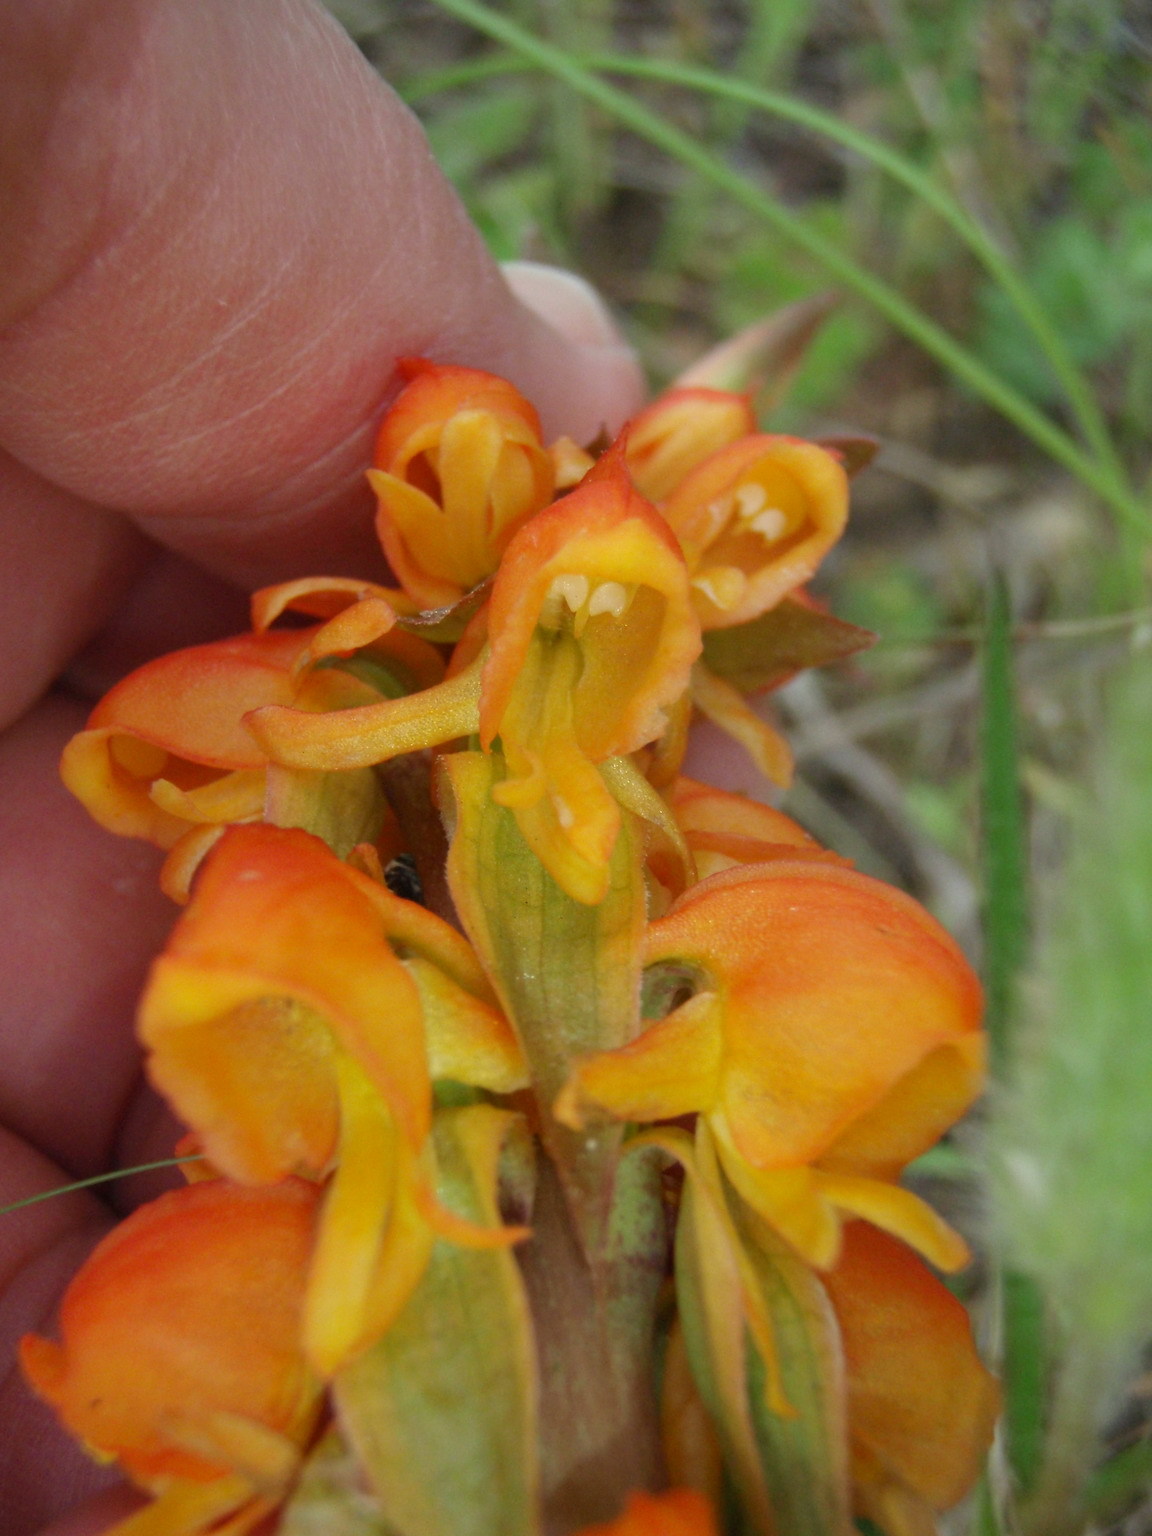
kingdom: Plantae
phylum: Tracheophyta
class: Liliopsida
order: Asparagales
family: Orchidaceae
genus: Satyrium
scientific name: Satyrium coriifolium
